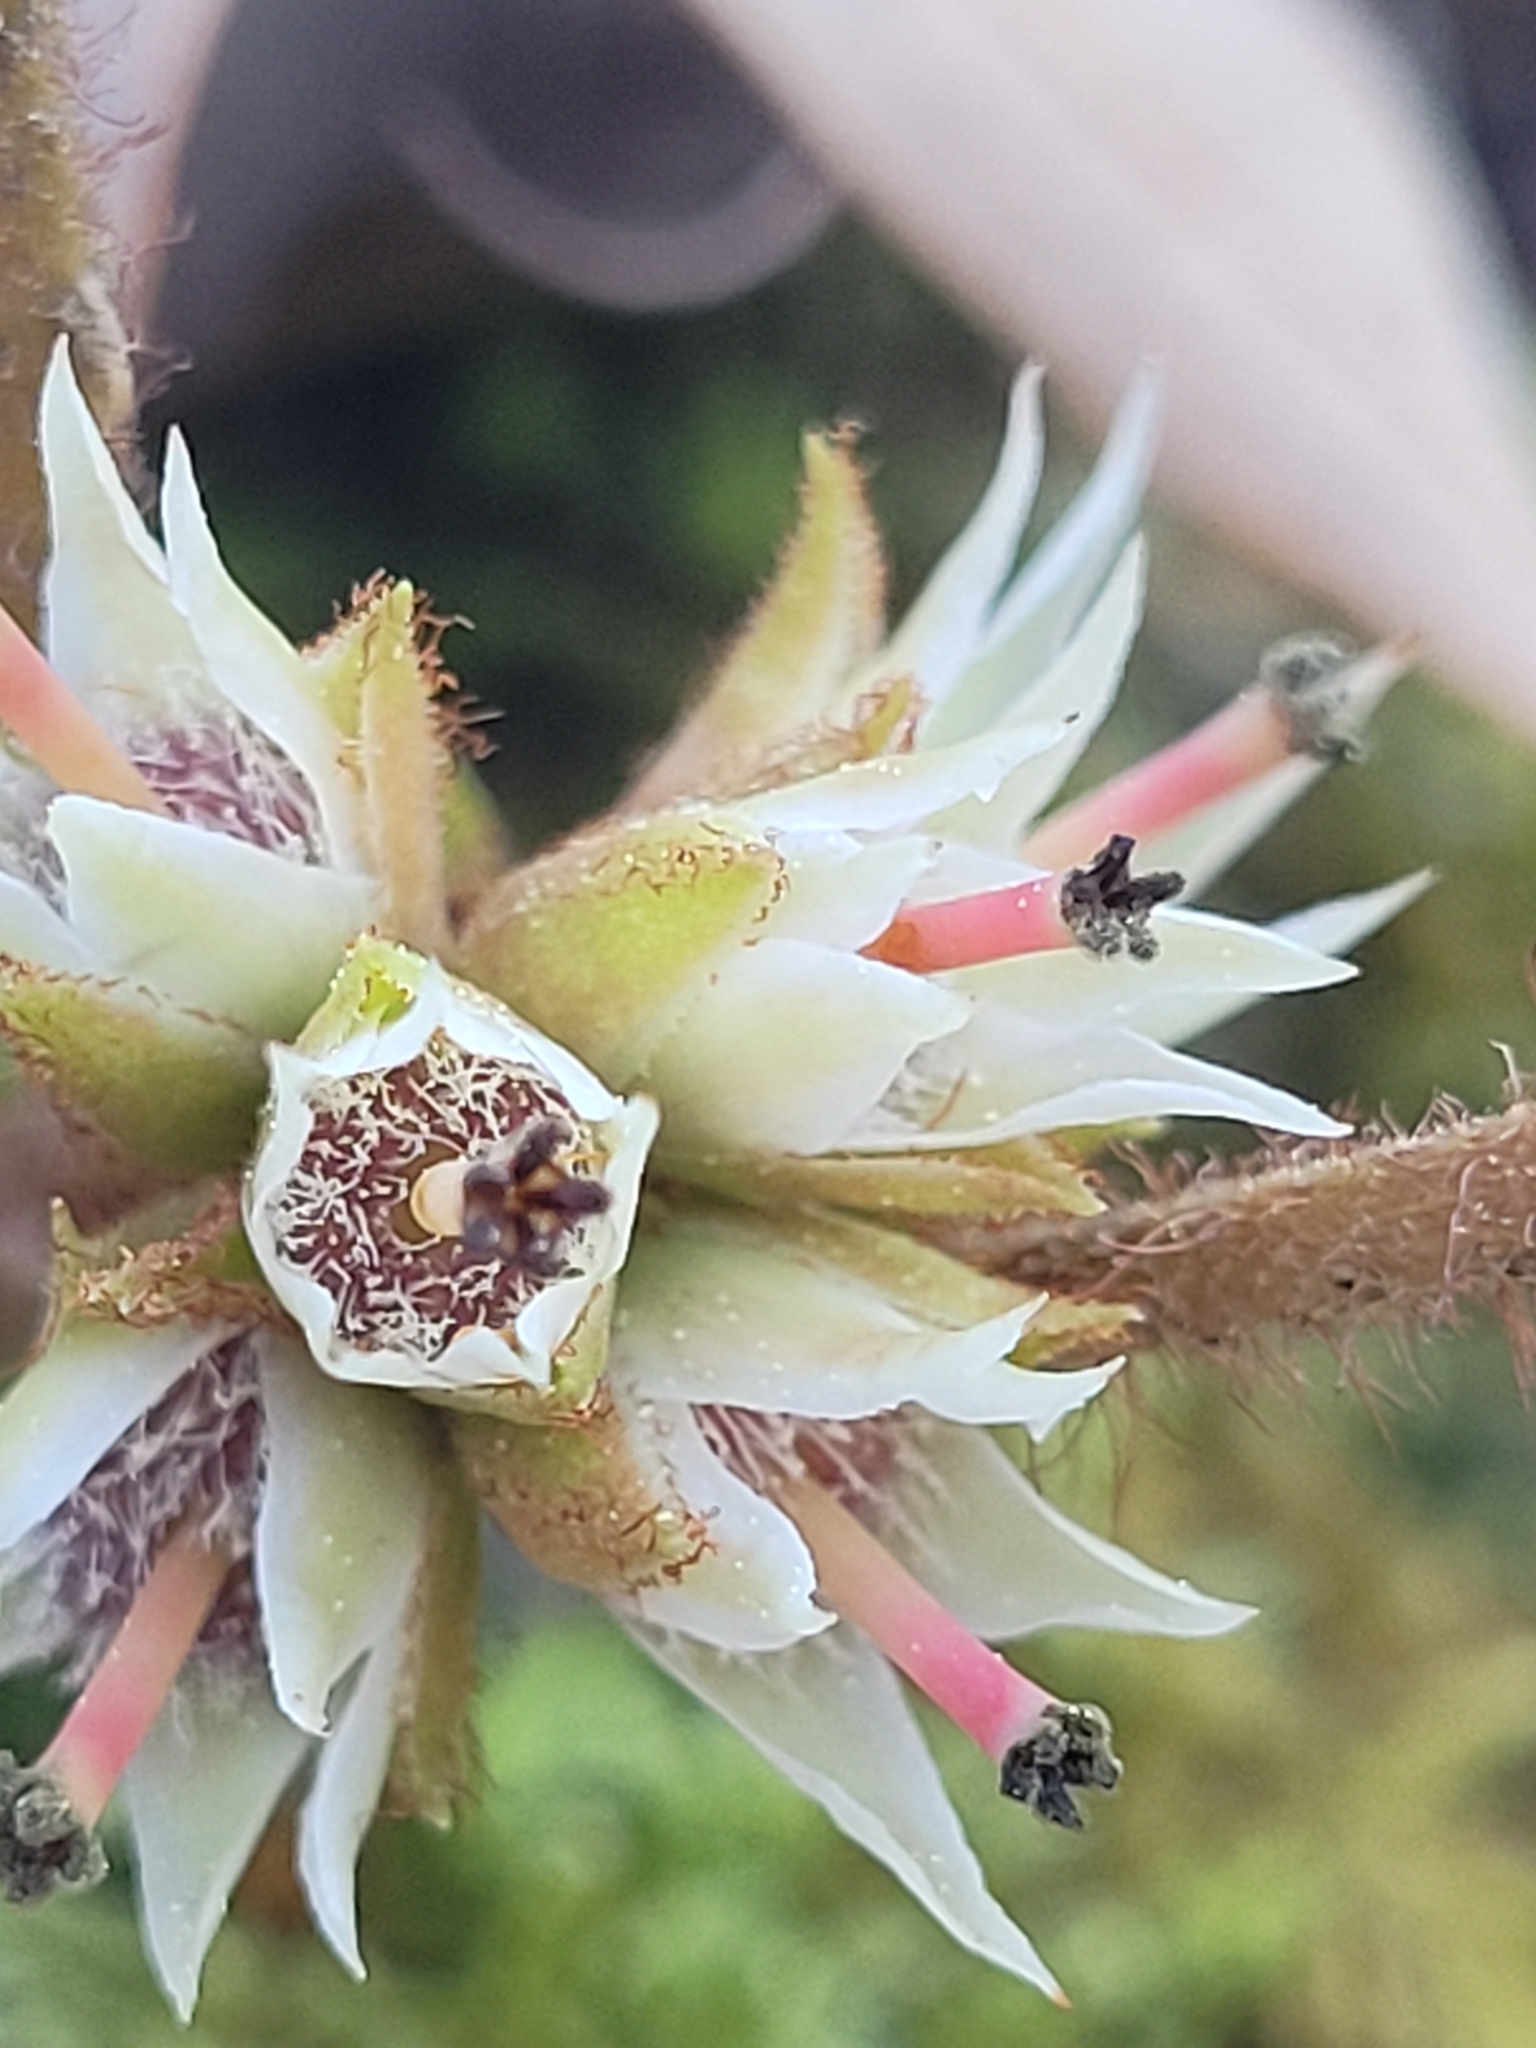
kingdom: Plantae
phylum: Tracheophyta
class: Magnoliopsida
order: Ericales
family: Ericaceae
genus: Epigaea
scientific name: Epigaea repens
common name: Gravelroot
